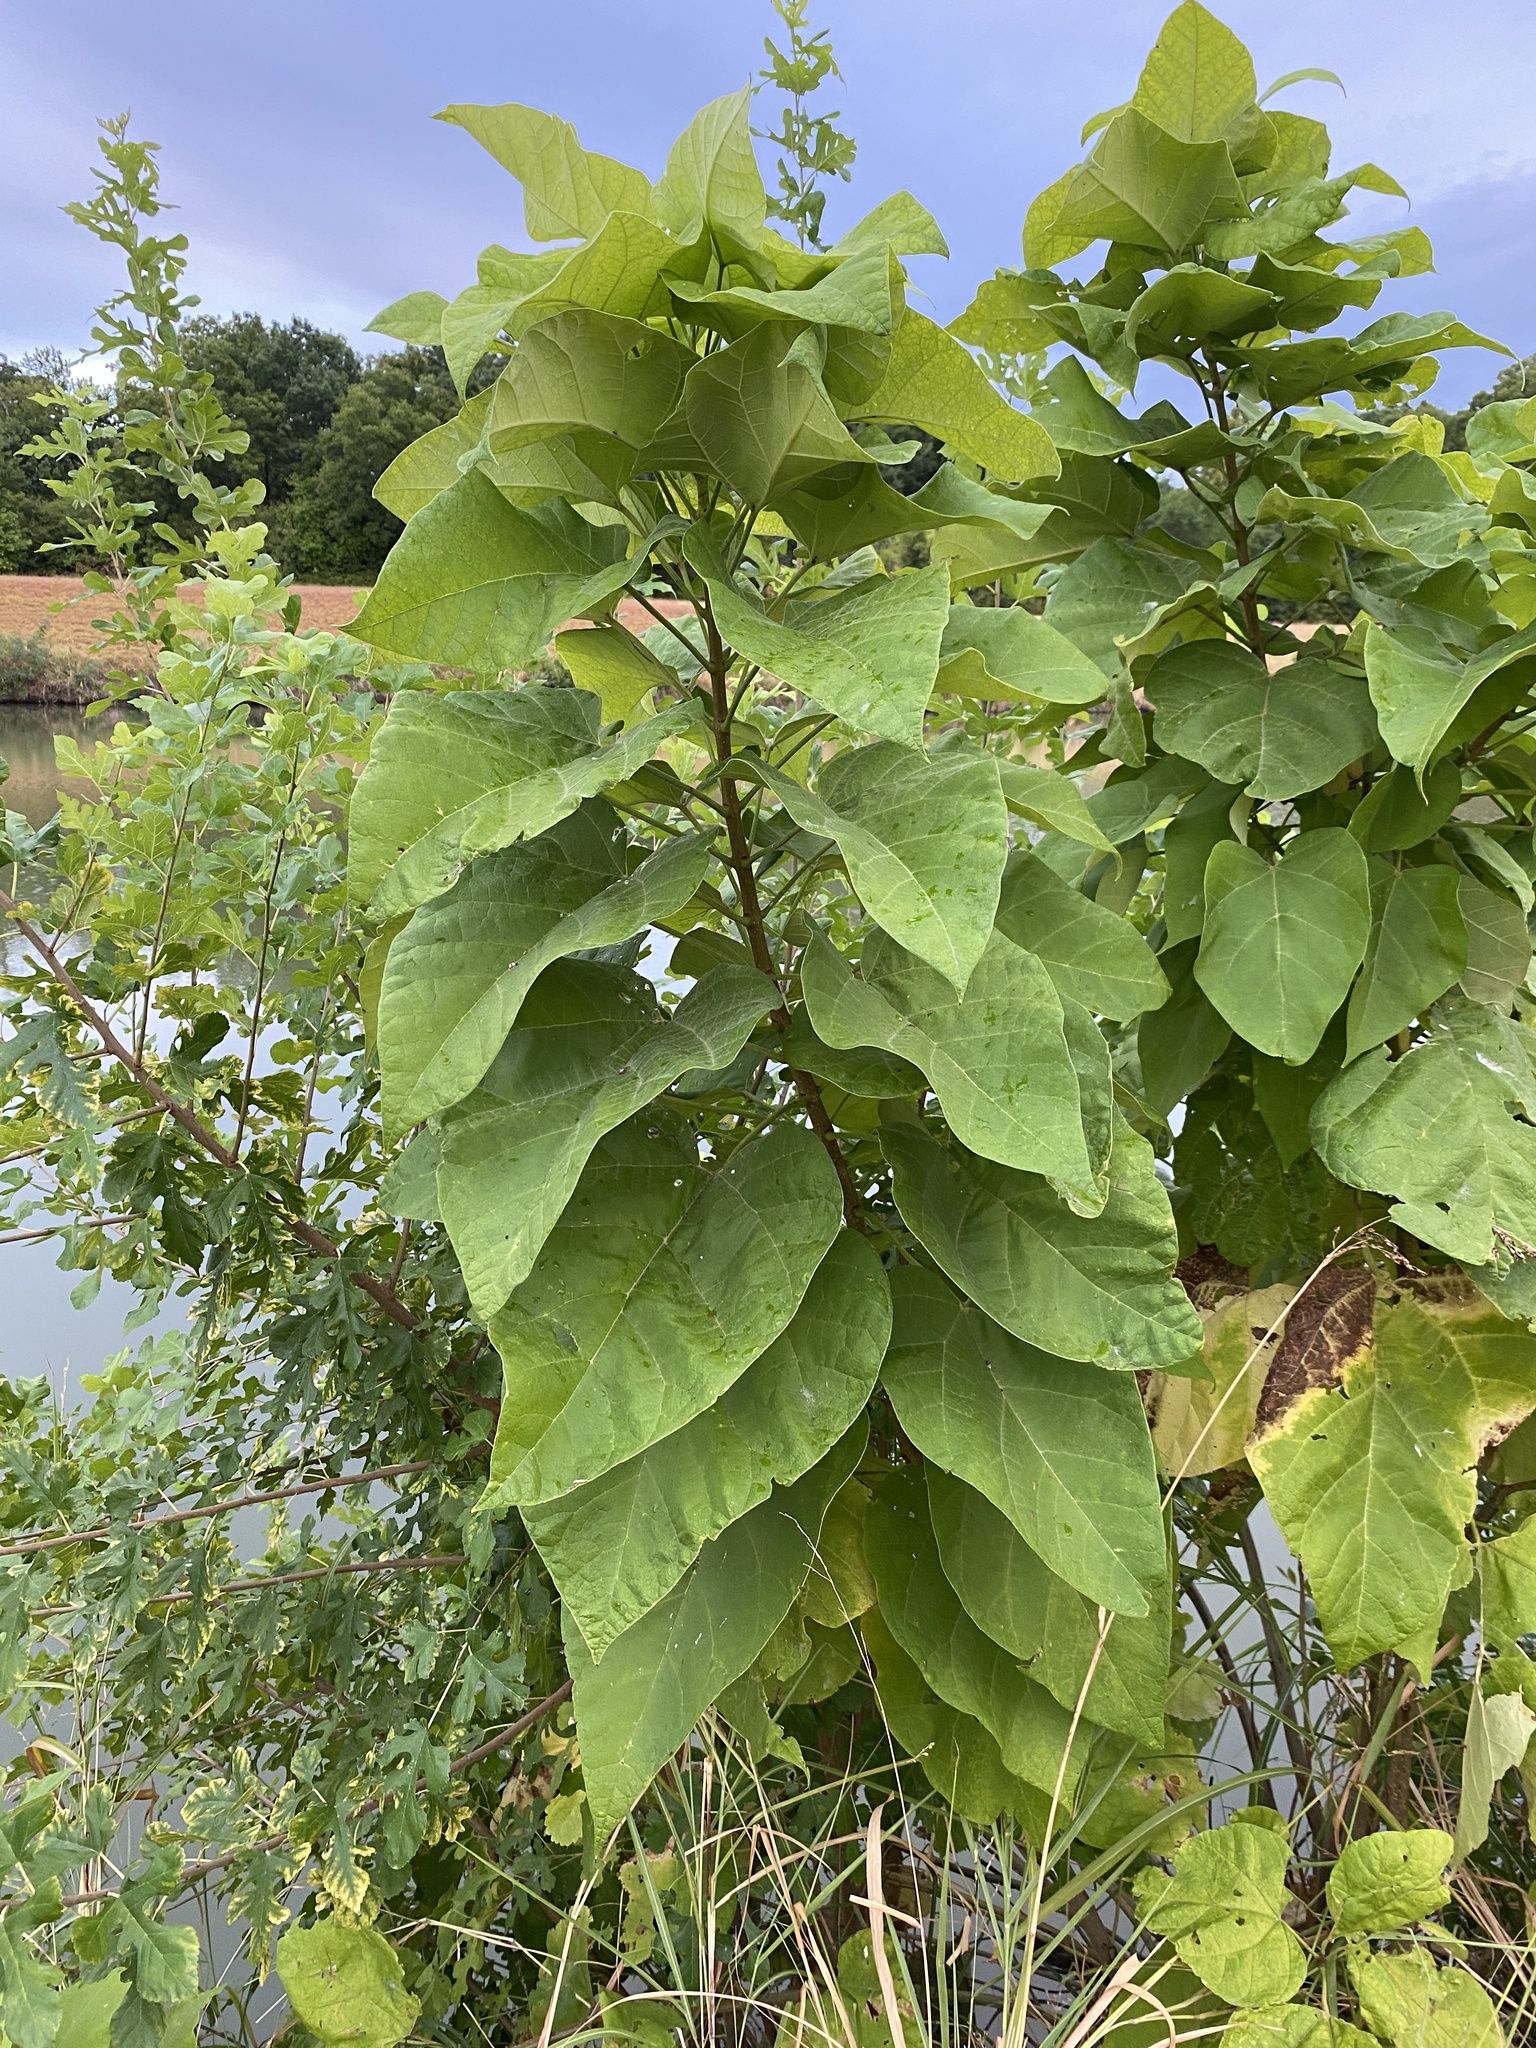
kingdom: Plantae
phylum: Tracheophyta
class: Magnoliopsida
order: Lamiales
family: Paulowniaceae
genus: Paulownia
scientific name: Paulownia tomentosa
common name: Foxglove-tree
